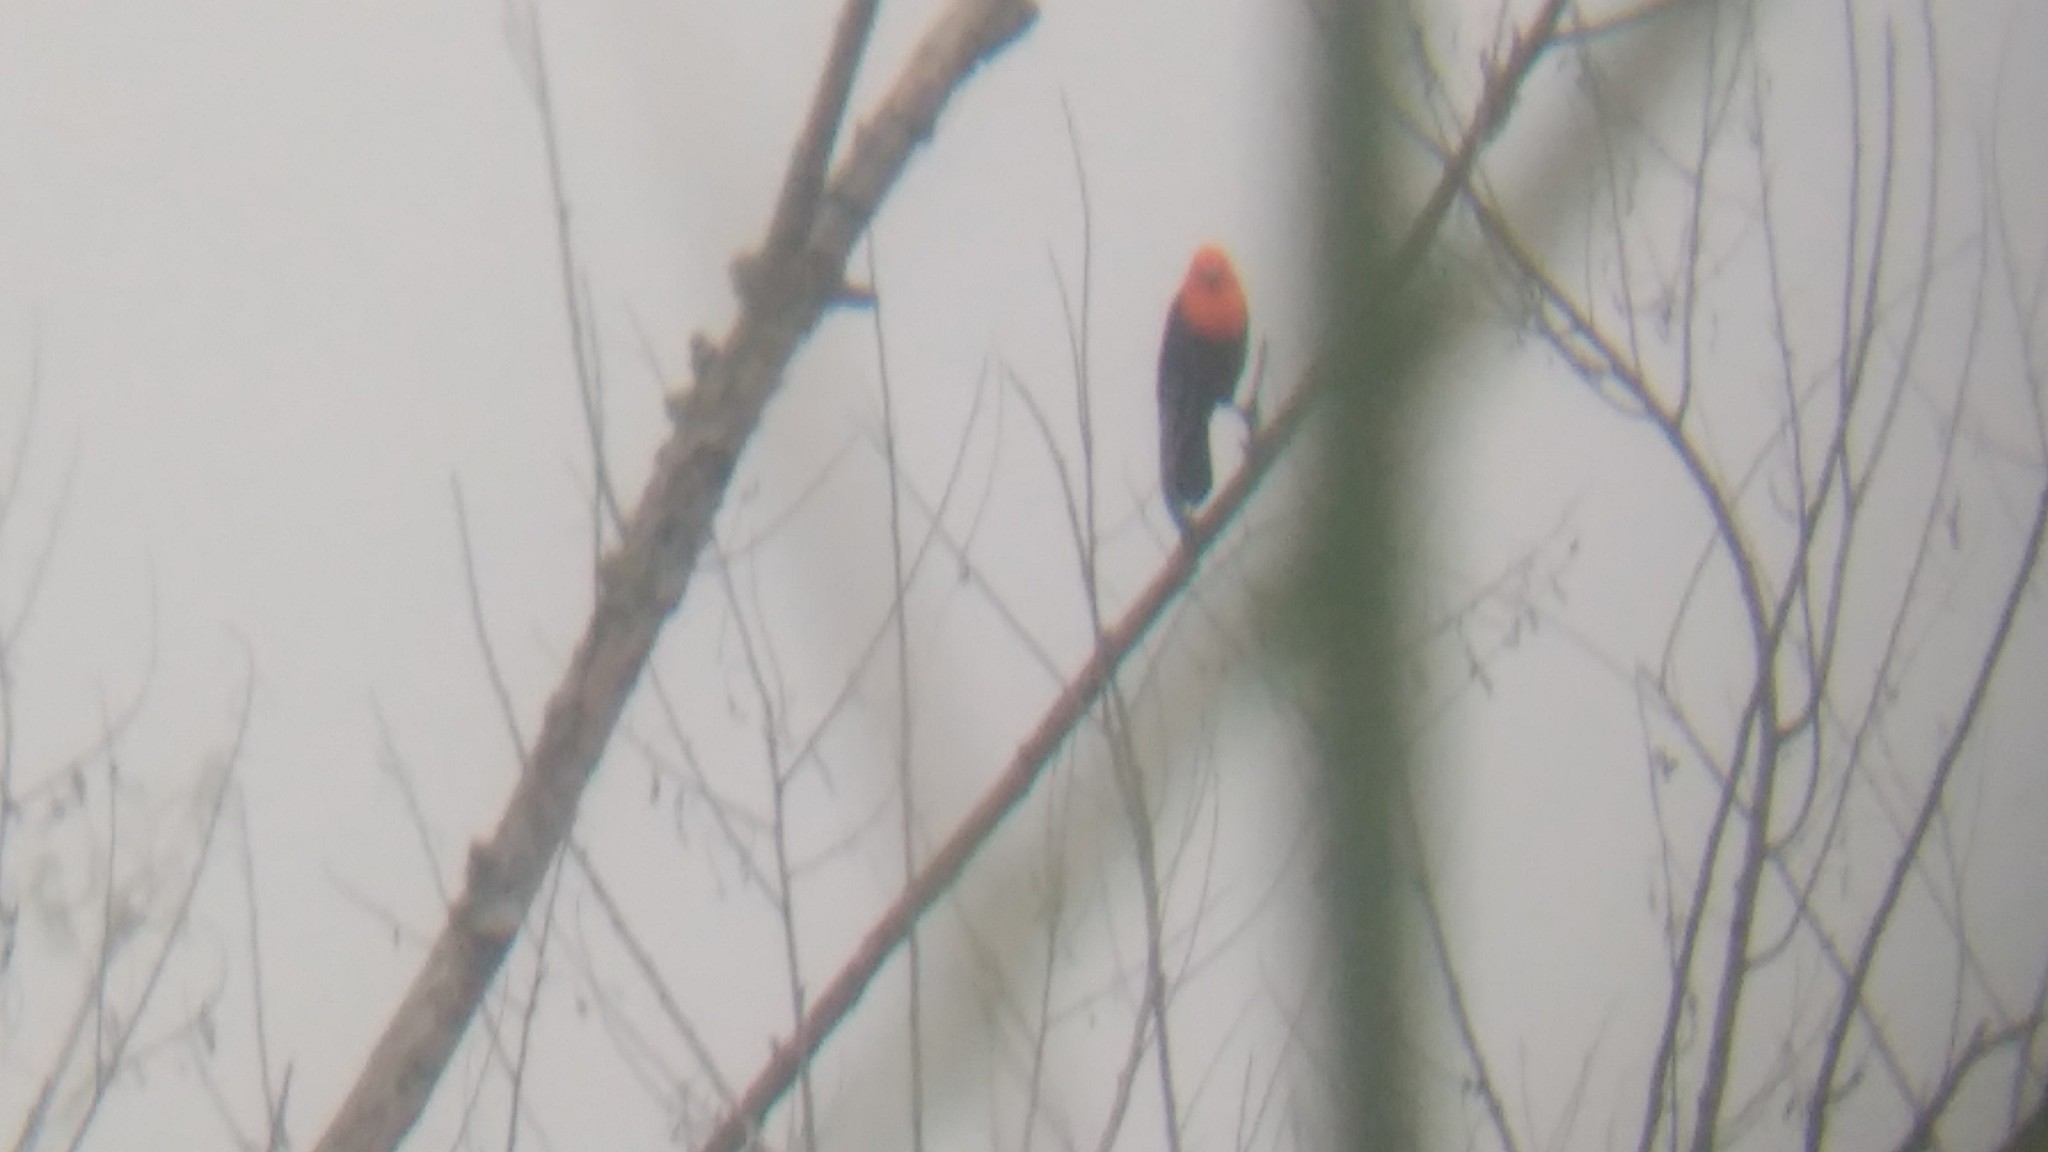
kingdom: Animalia
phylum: Chordata
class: Aves
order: Passeriformes
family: Icteridae
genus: Amblyramphus
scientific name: Amblyramphus holosericeus
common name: Scarlet-headed blackbird
